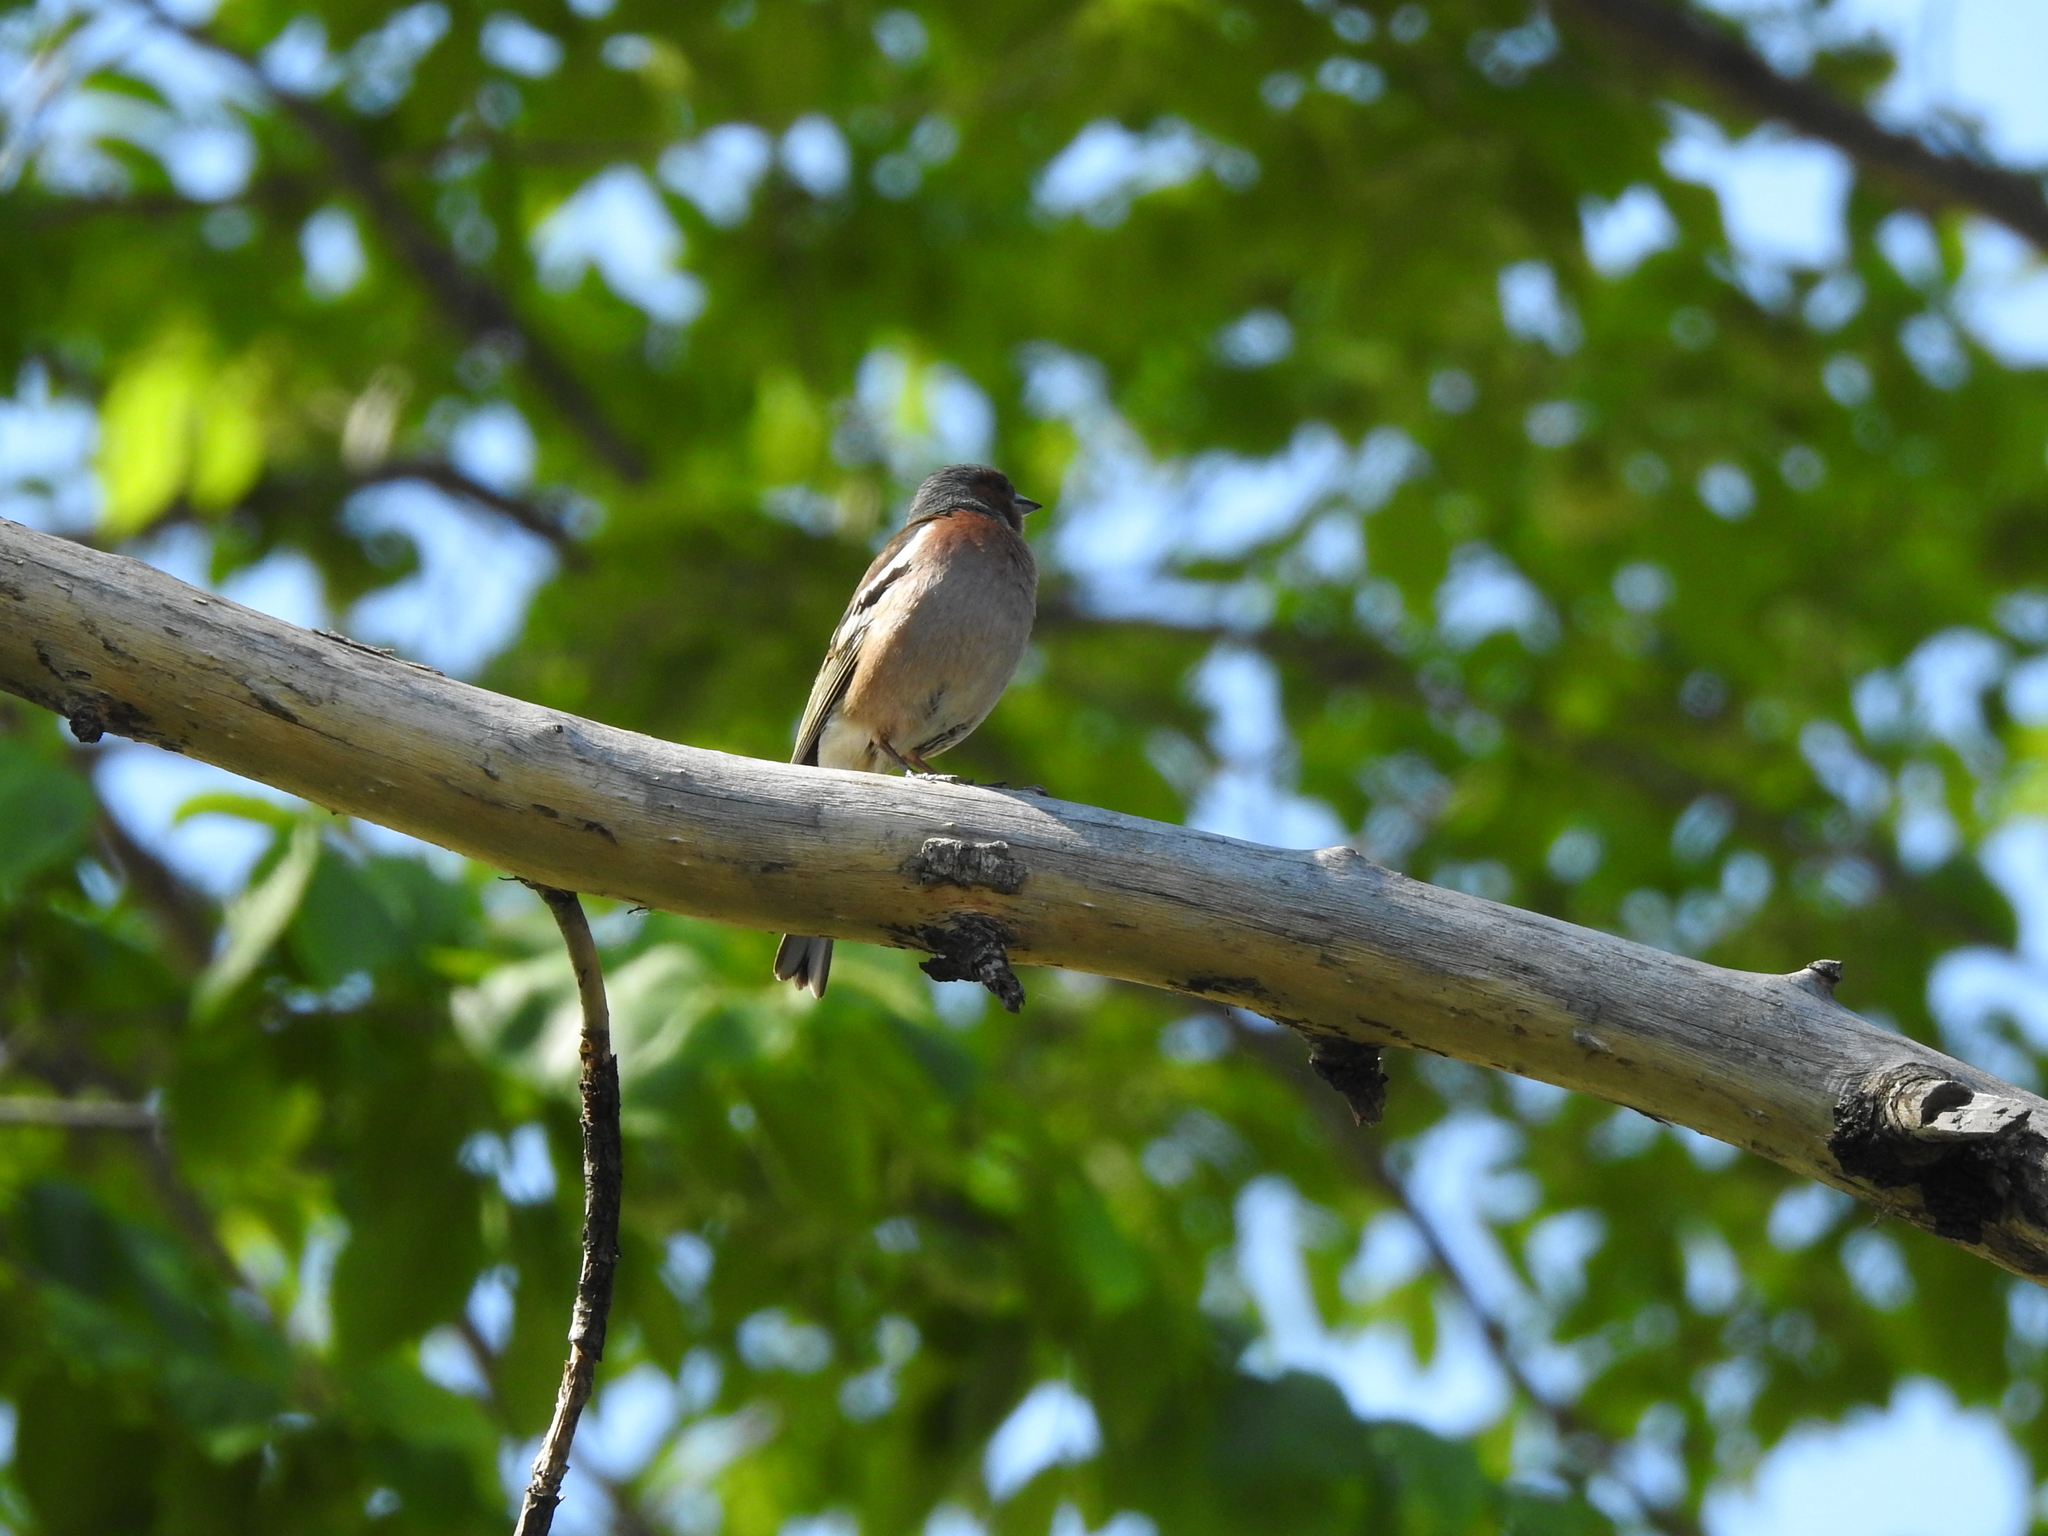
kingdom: Animalia
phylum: Chordata
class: Aves
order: Passeriformes
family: Fringillidae
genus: Fringilla
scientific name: Fringilla coelebs
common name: Common chaffinch
